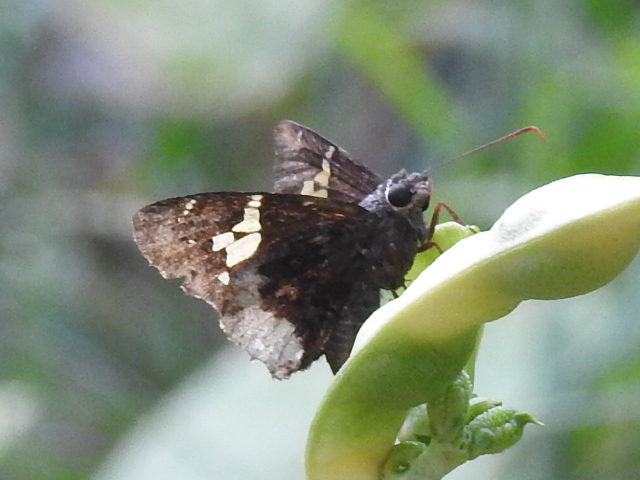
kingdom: Animalia
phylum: Arthropoda
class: Insecta
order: Lepidoptera
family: Hesperiidae
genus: Thorybes
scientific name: Thorybes lyciades
